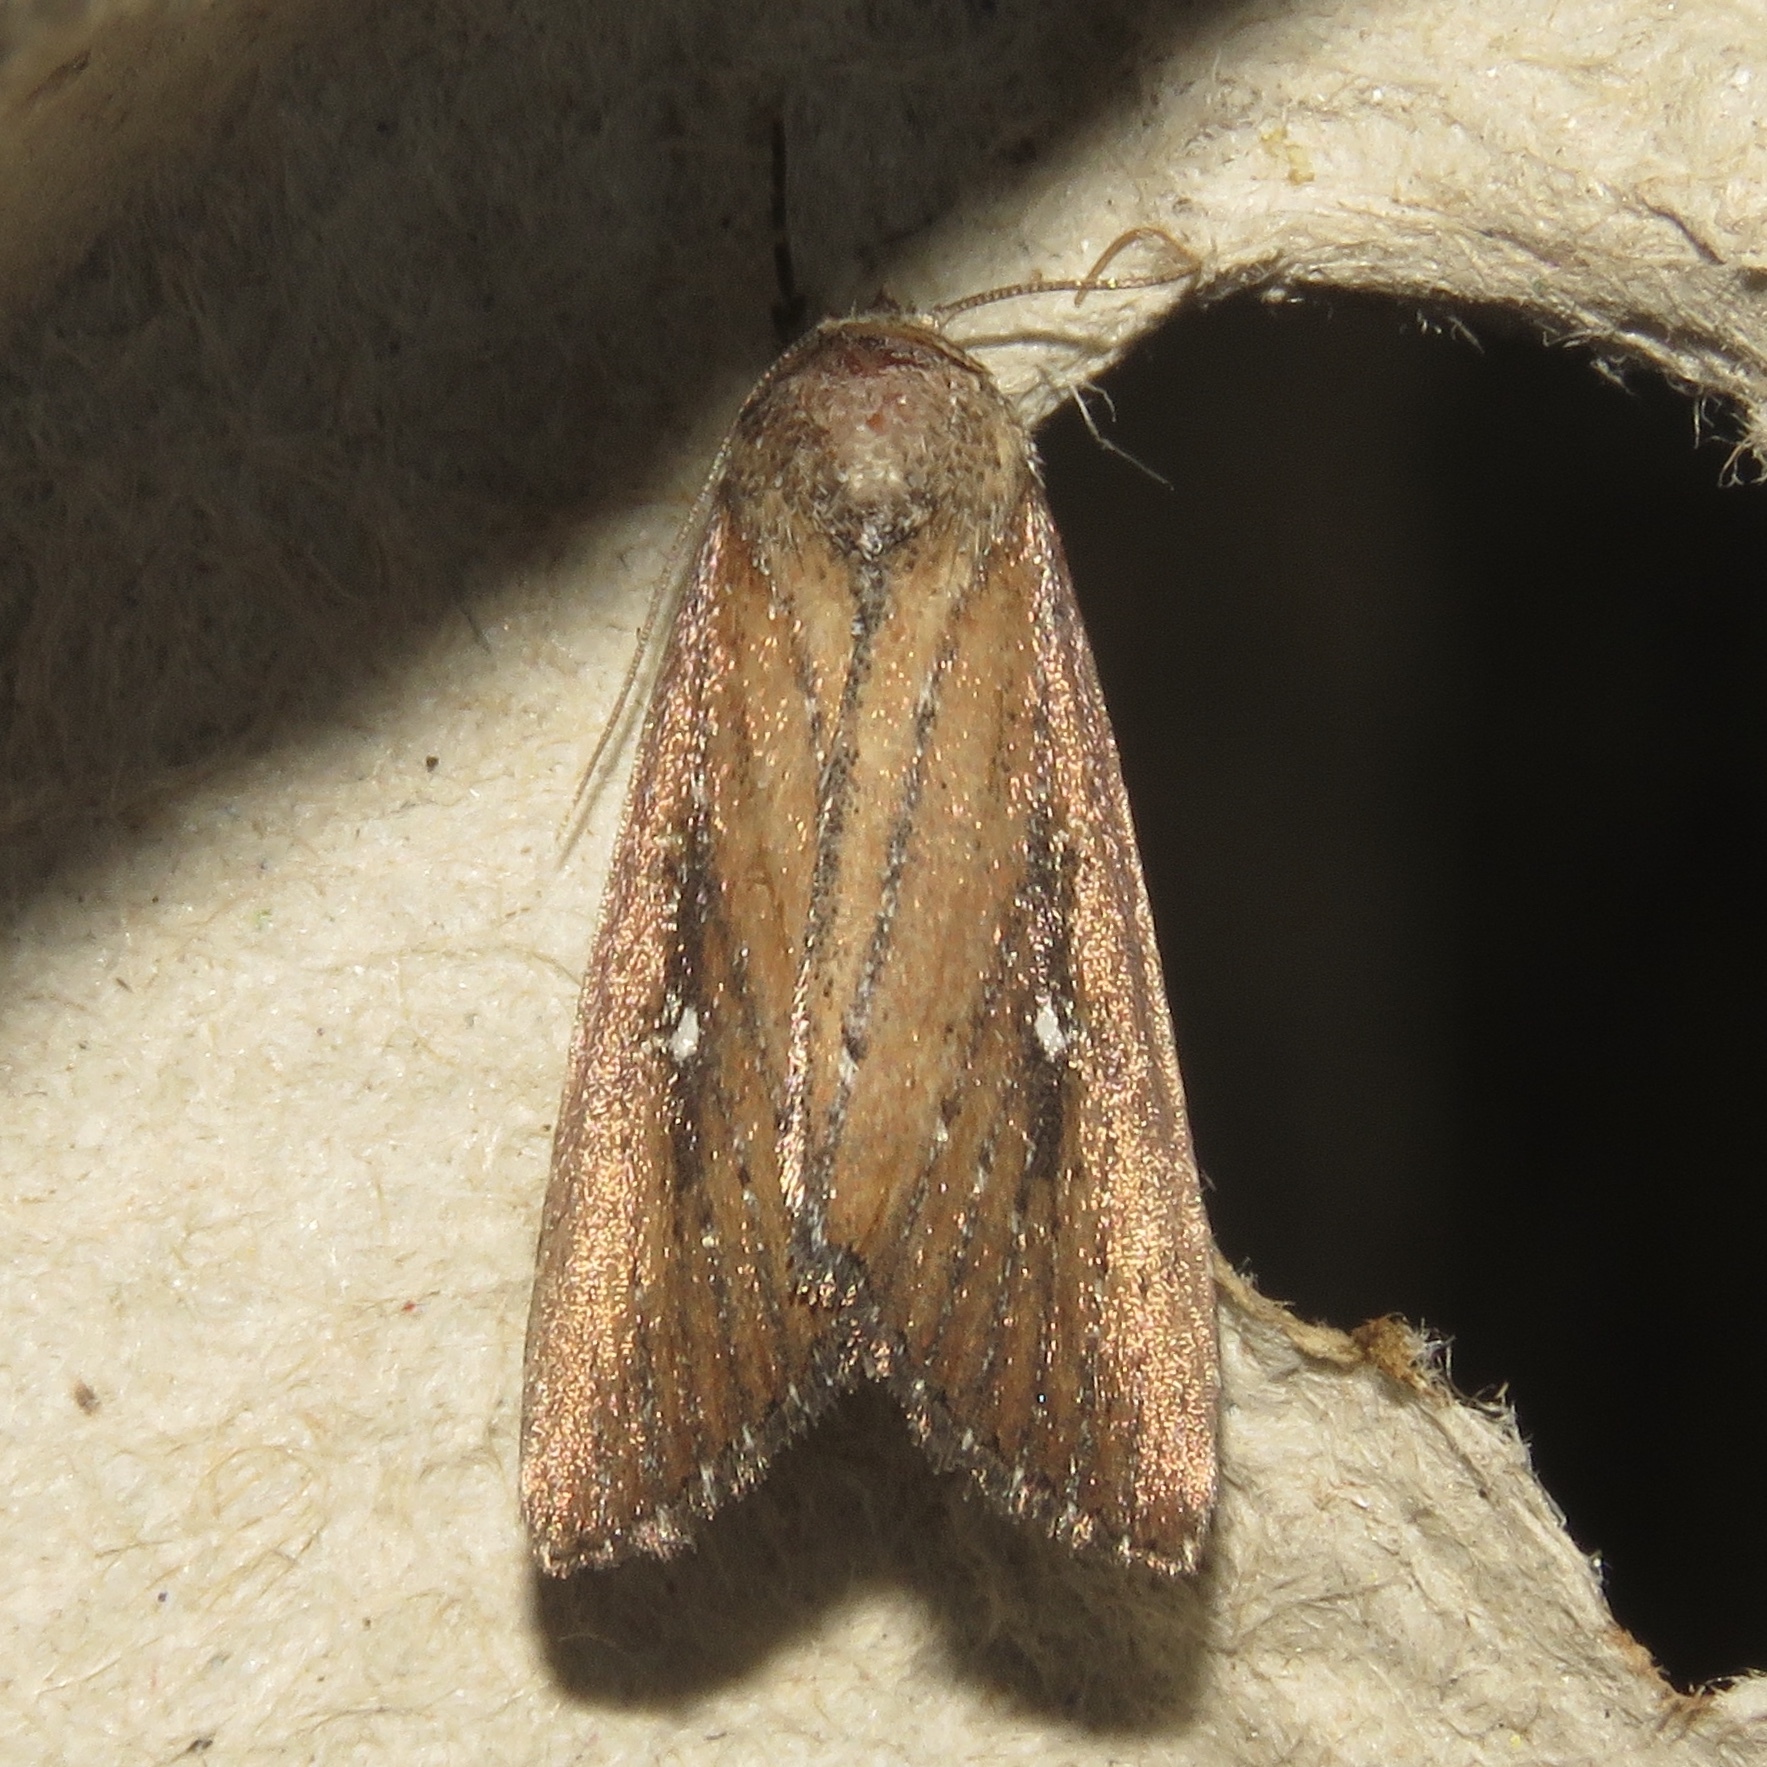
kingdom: Animalia
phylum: Arthropoda
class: Insecta
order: Lepidoptera
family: Noctuidae
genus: Condica
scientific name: Condica videns
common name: White-dotted groundling
